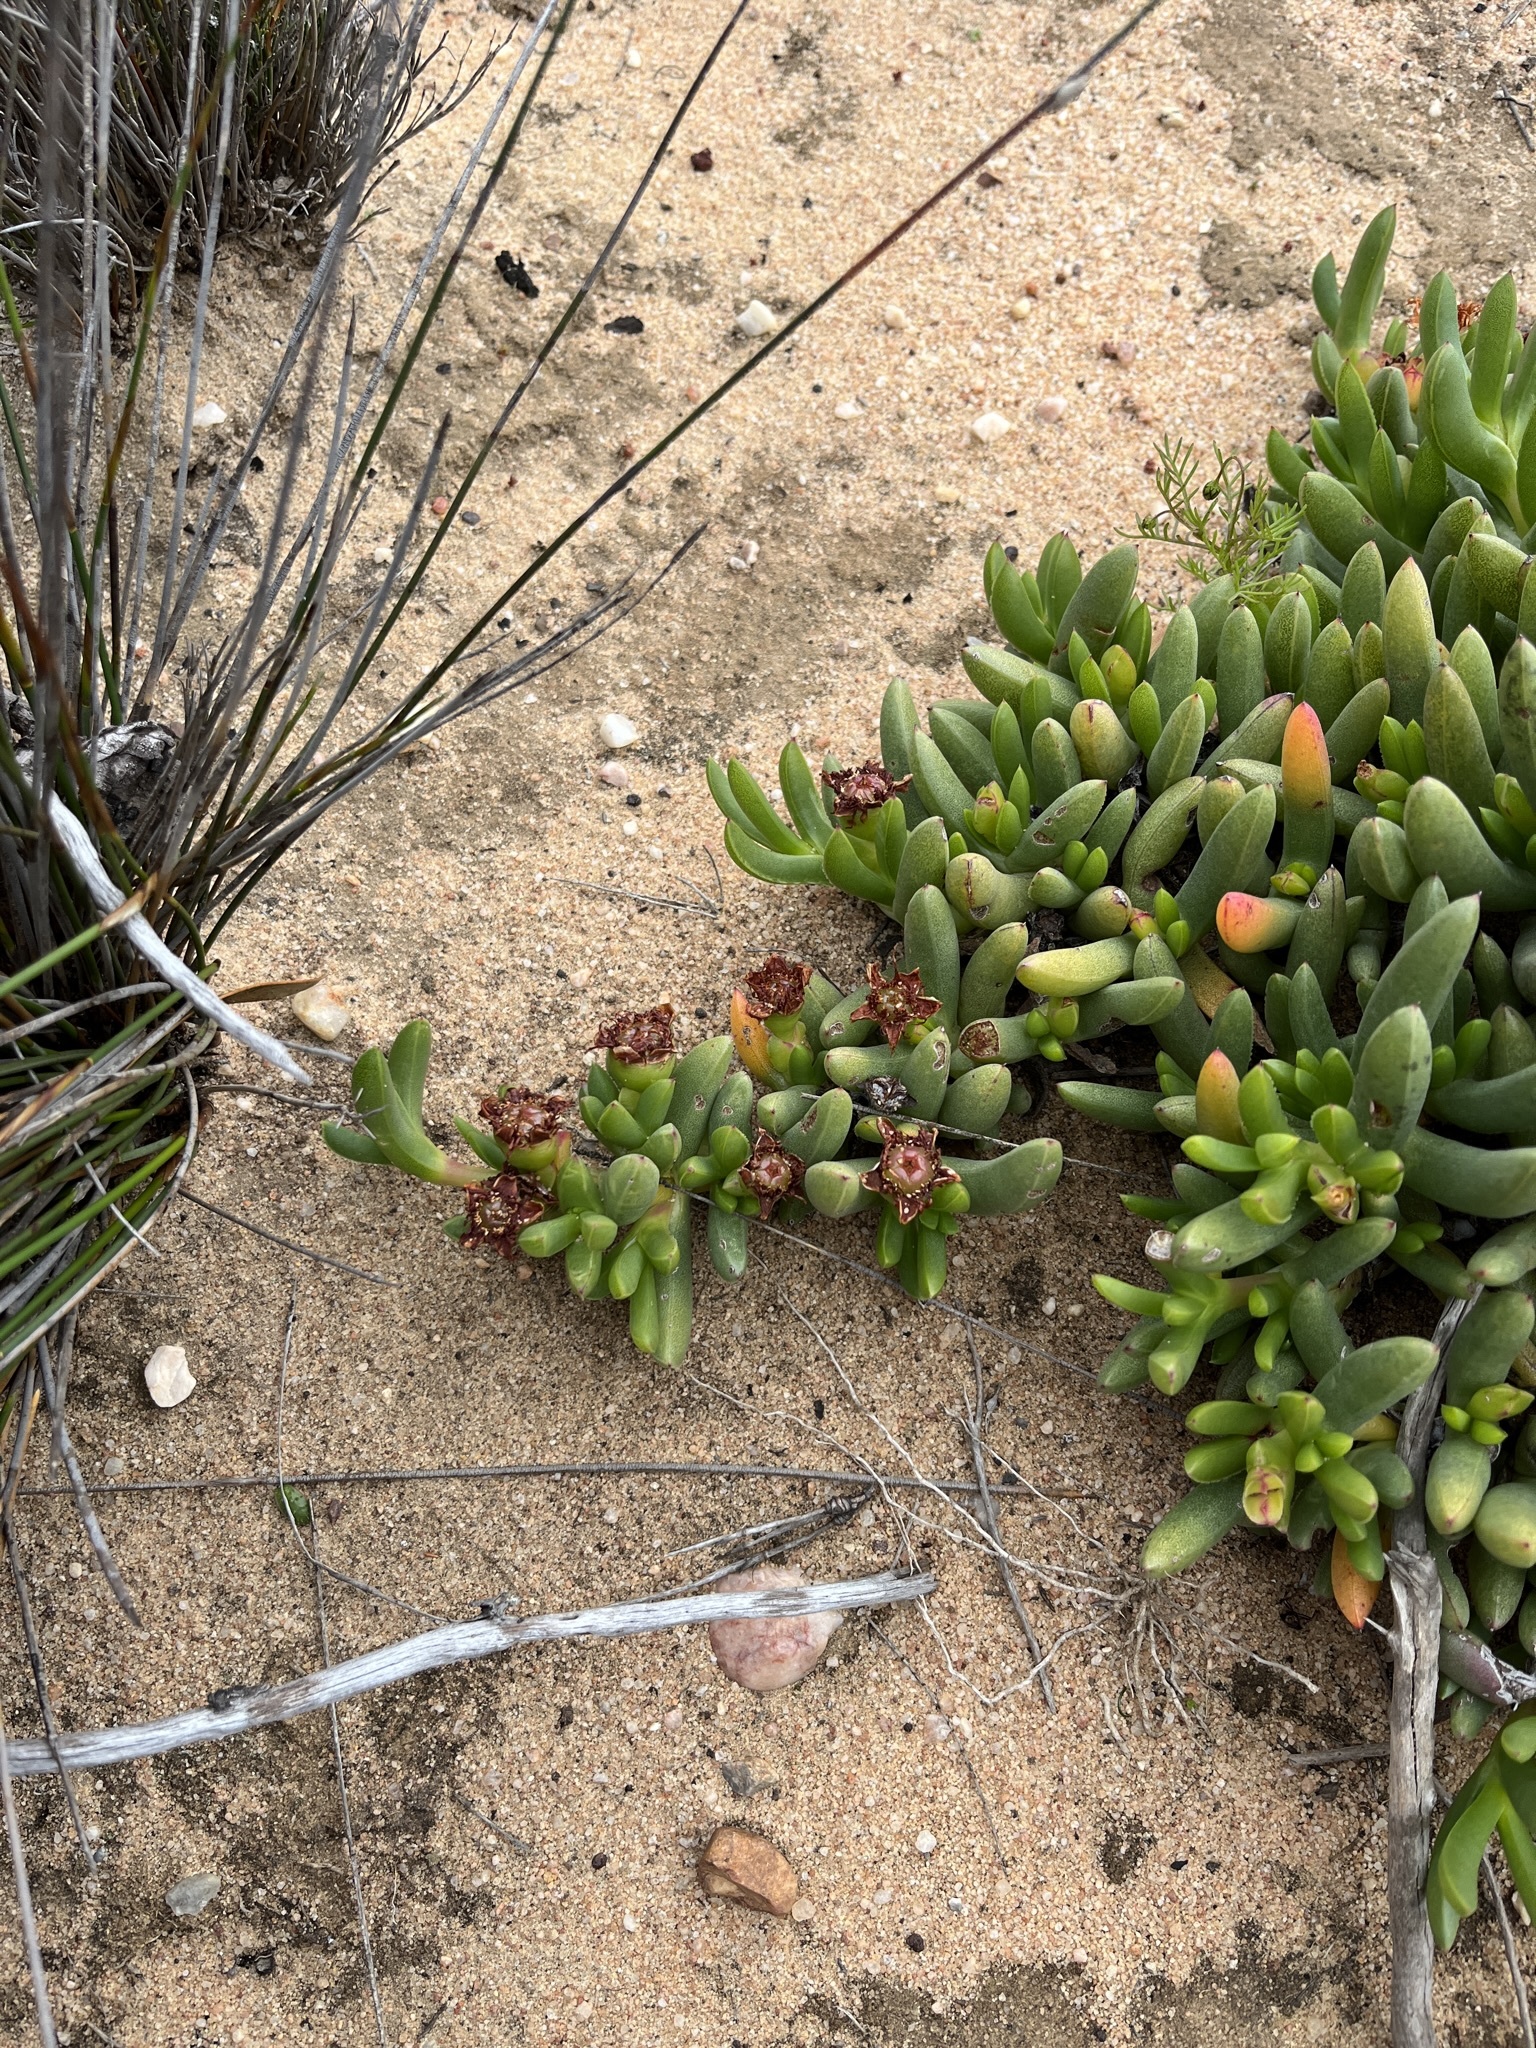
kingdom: Plantae
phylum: Tracheophyta
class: Magnoliopsida
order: Caryophyllales
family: Aizoaceae
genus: Ruschia
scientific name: Ruschia dichroa
